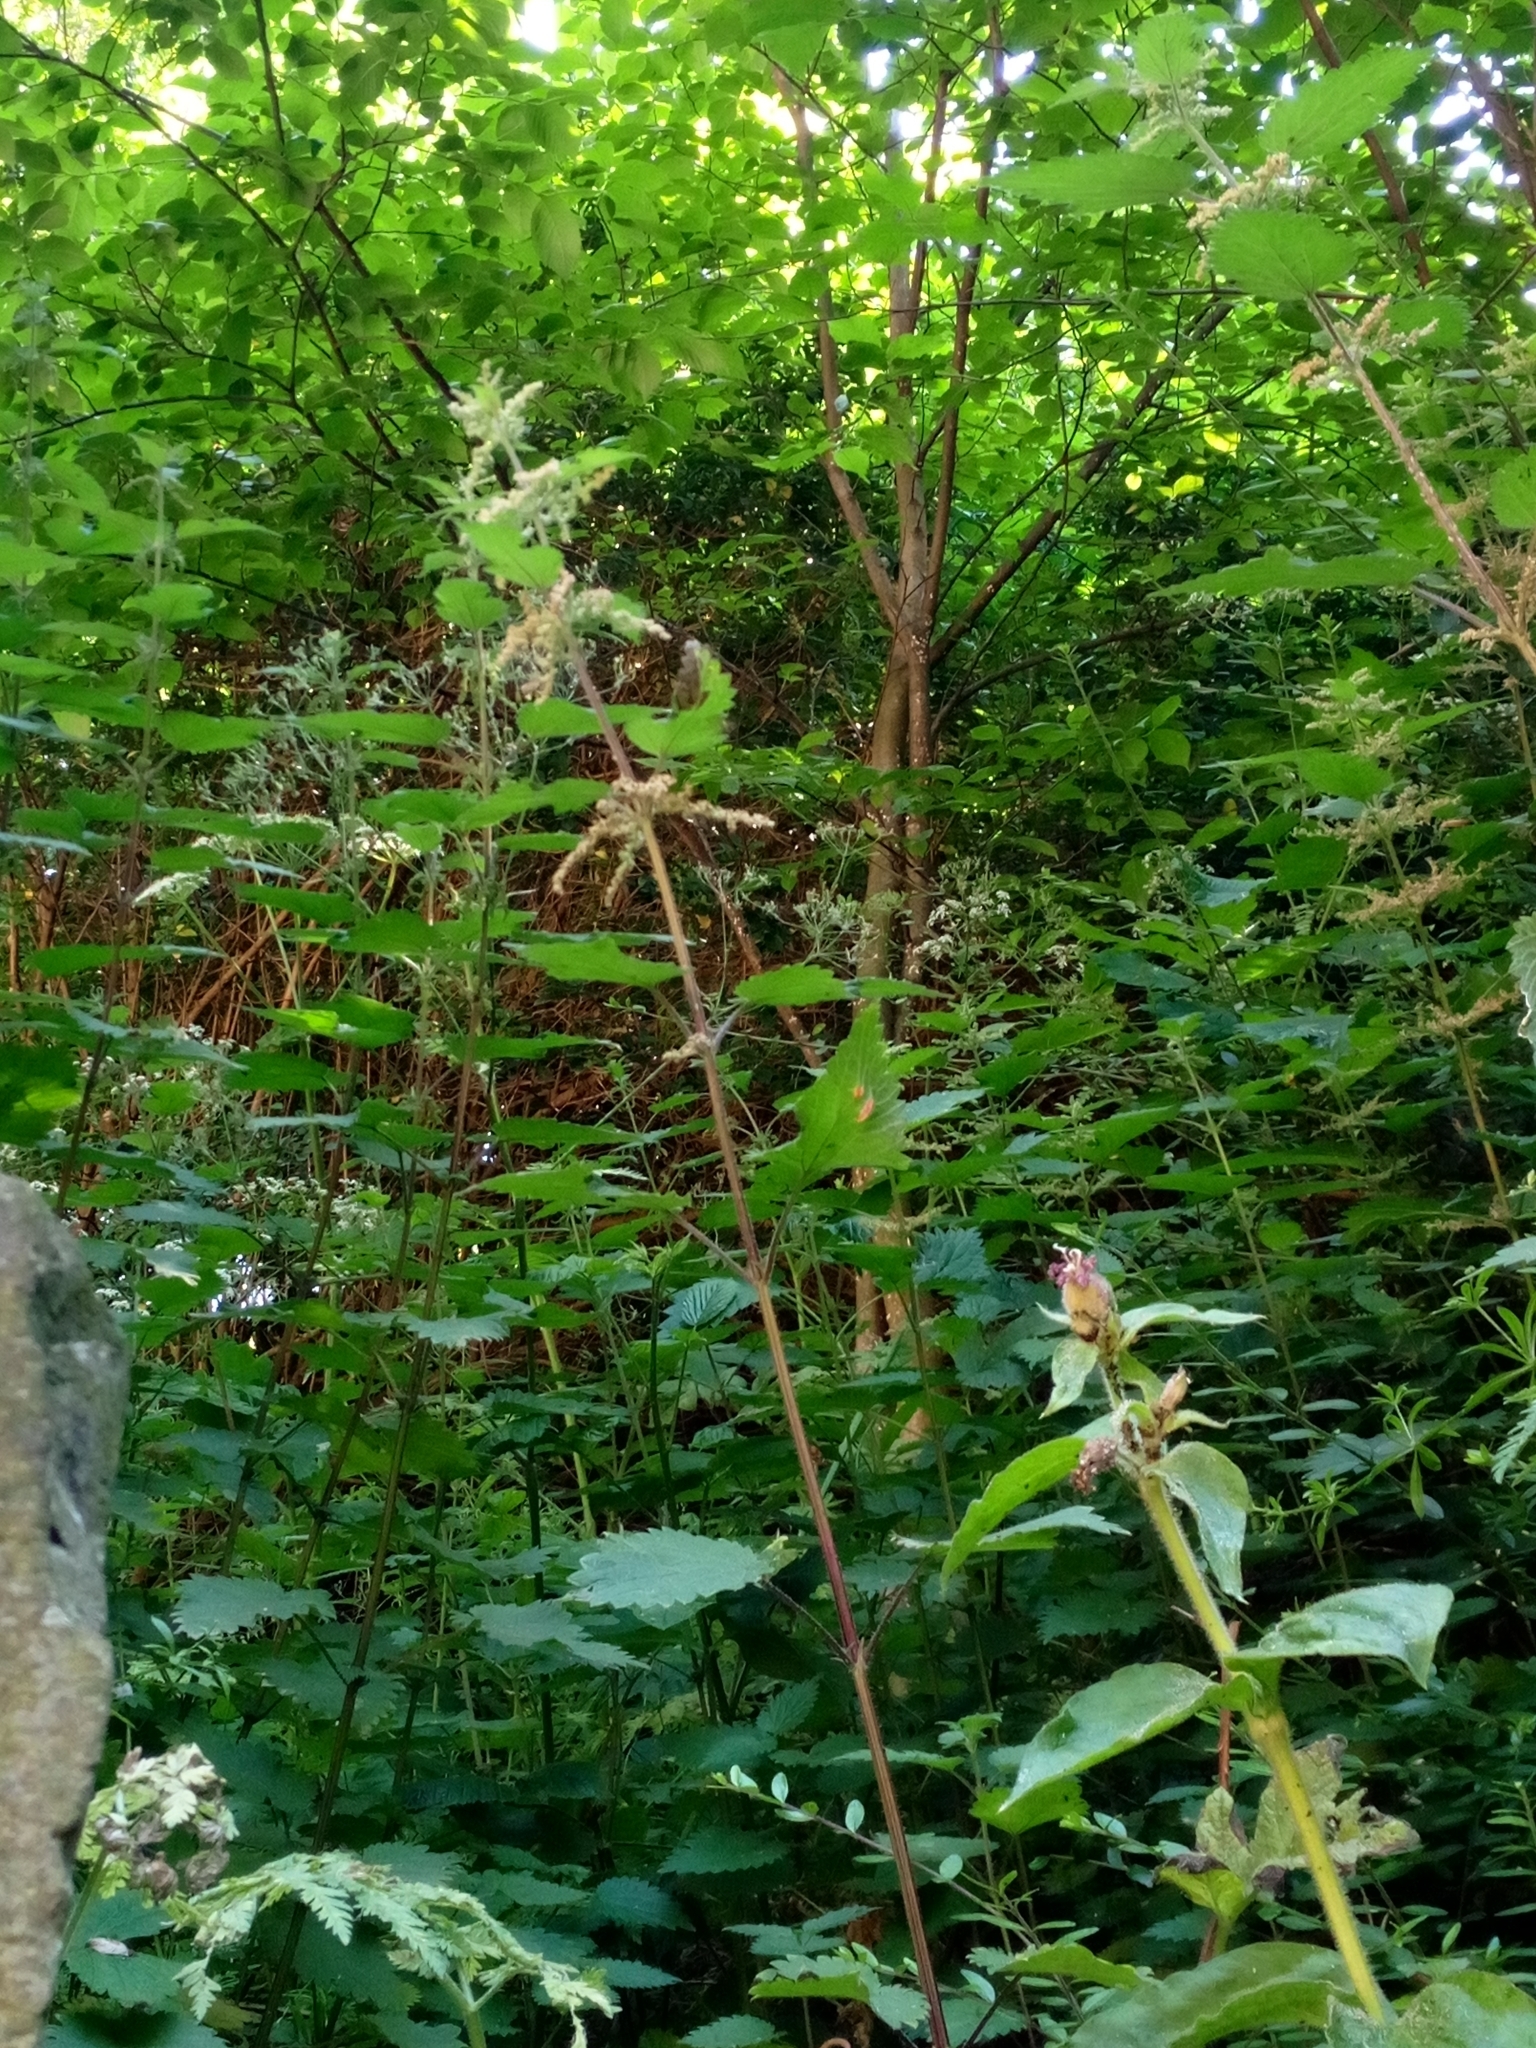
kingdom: Plantae
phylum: Tracheophyta
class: Magnoliopsida
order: Rosales
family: Urticaceae
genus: Urtica
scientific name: Urtica dioica
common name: Common nettle
